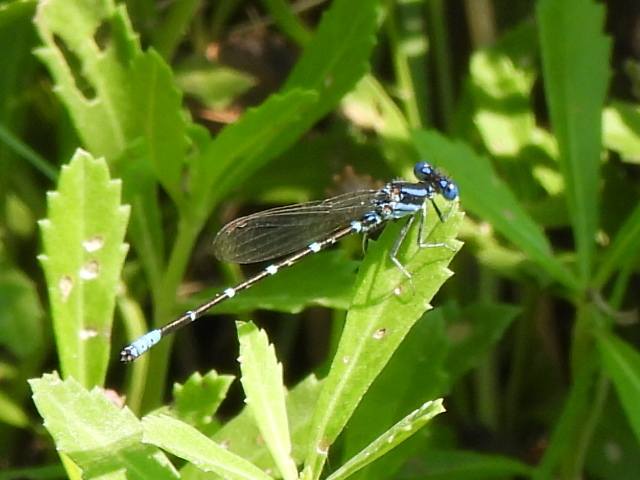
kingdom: Animalia
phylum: Arthropoda
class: Insecta
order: Odonata
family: Coenagrionidae
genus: Argia
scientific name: Argia sedula
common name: Blue-ringed dancer
